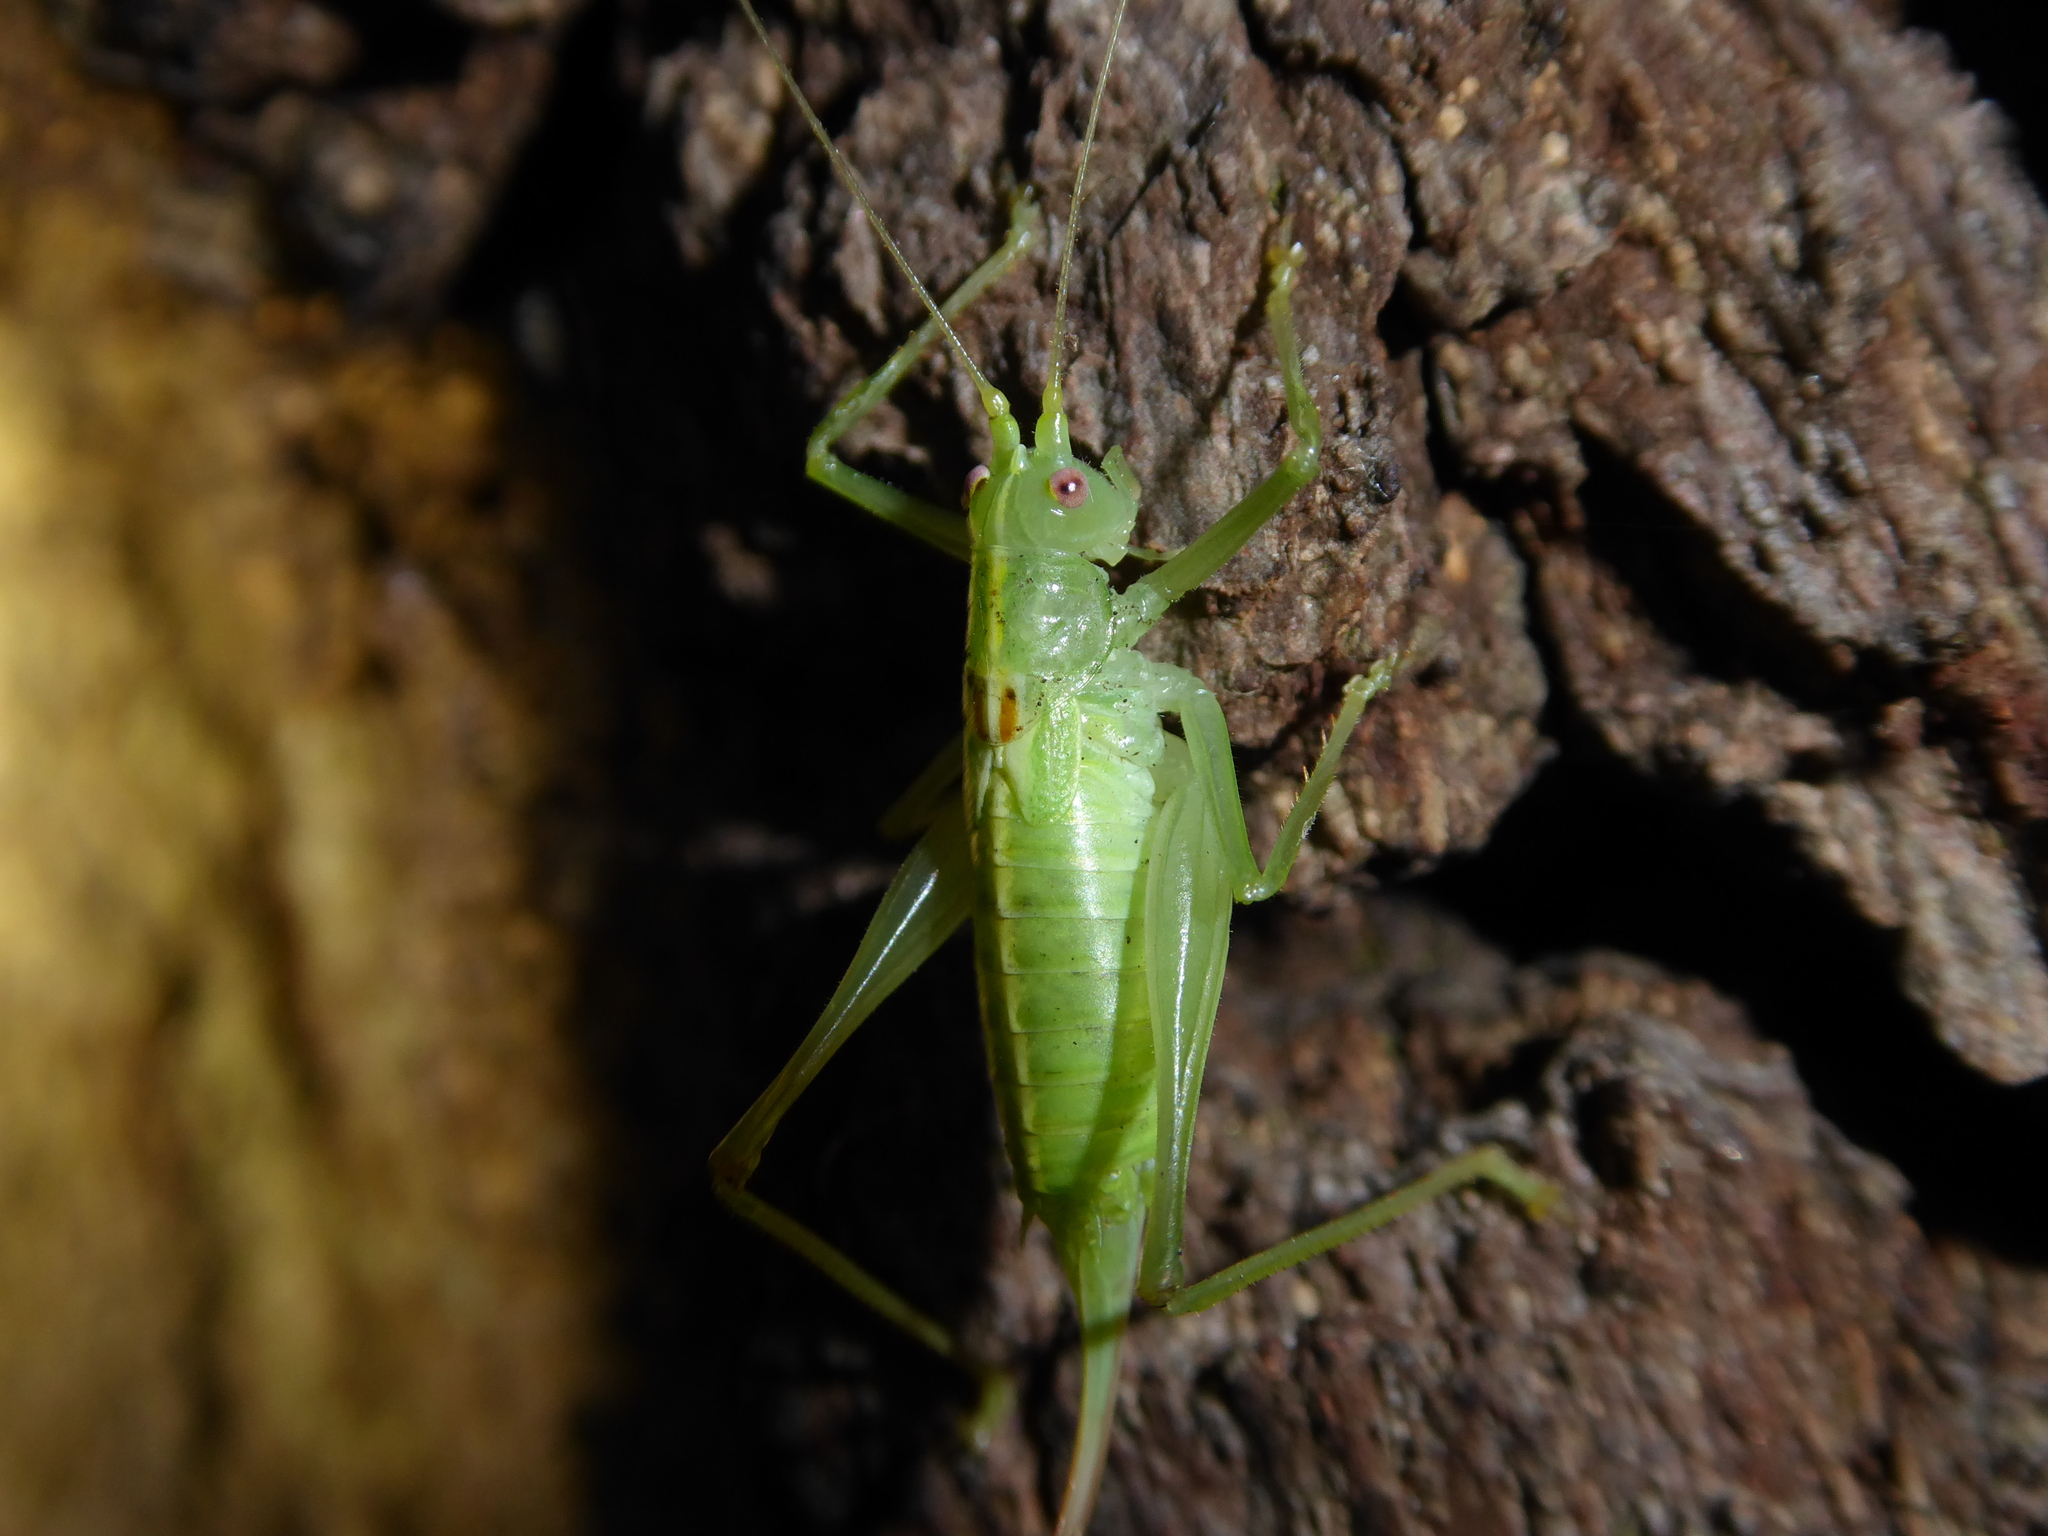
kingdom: Animalia
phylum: Arthropoda
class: Insecta
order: Orthoptera
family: Tettigoniidae
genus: Meconema
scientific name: Meconema meridionale
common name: Southern oak bush-cricket
